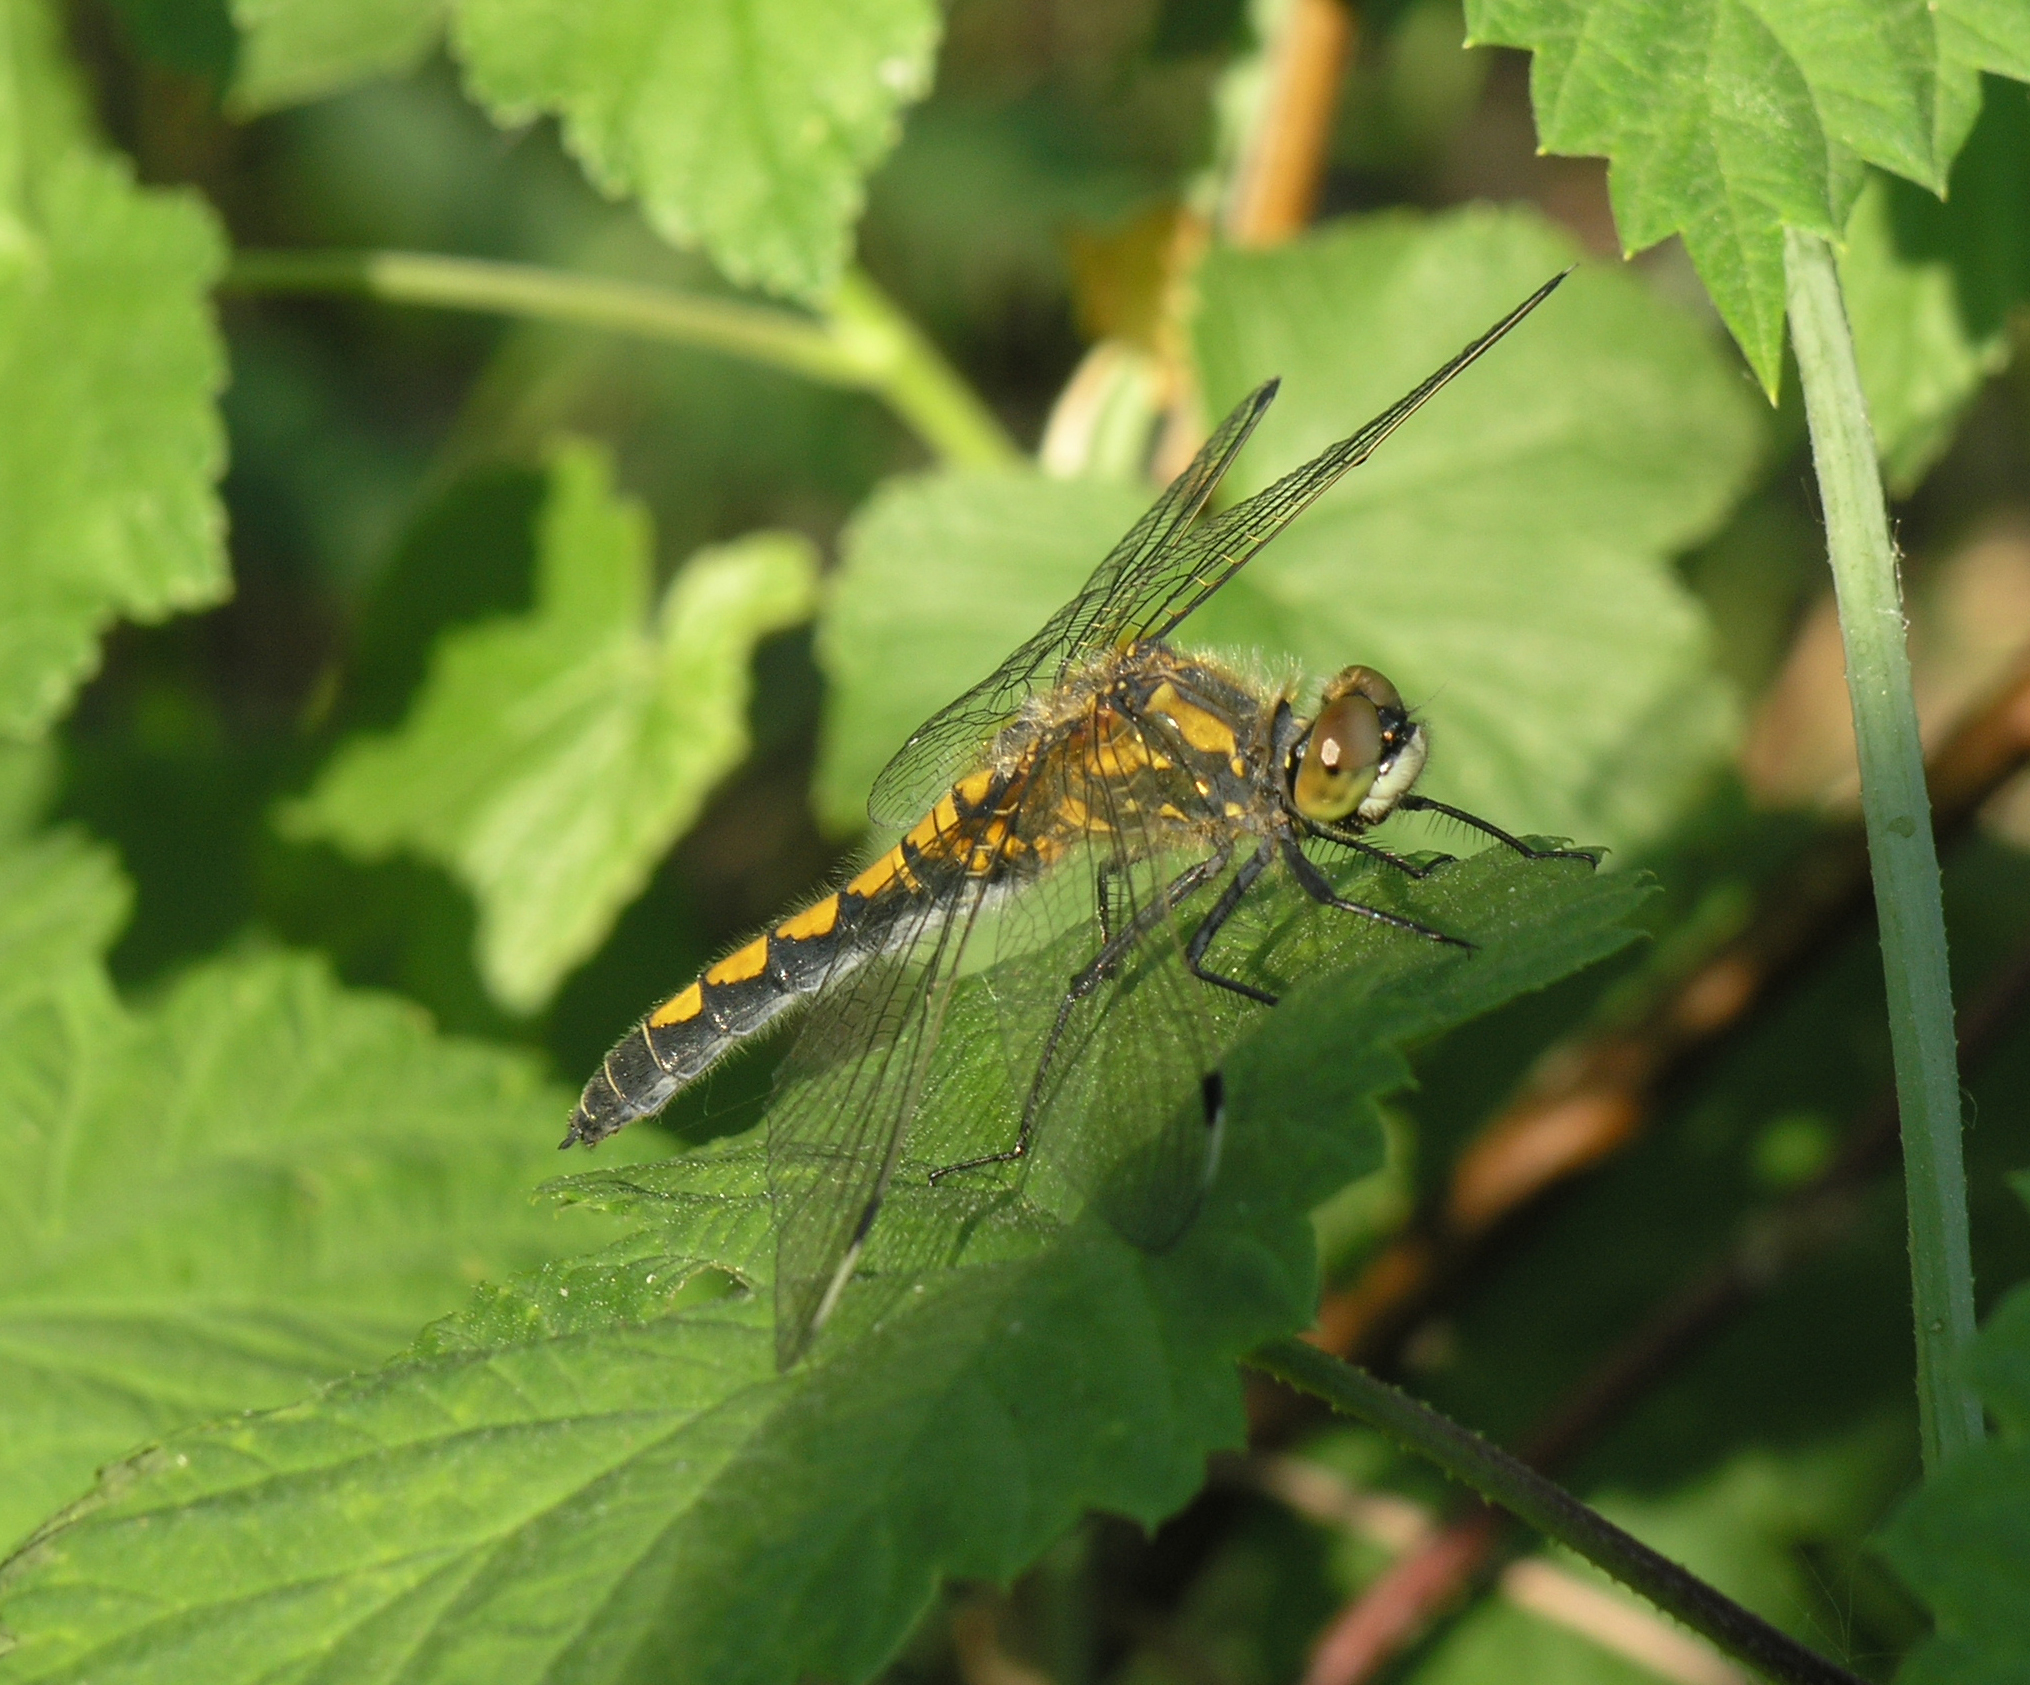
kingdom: Animalia
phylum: Arthropoda
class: Insecta
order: Odonata
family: Libellulidae
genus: Leucorrhinia
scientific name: Leucorrhinia pectoralis
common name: Yellow-spotted whiteface
